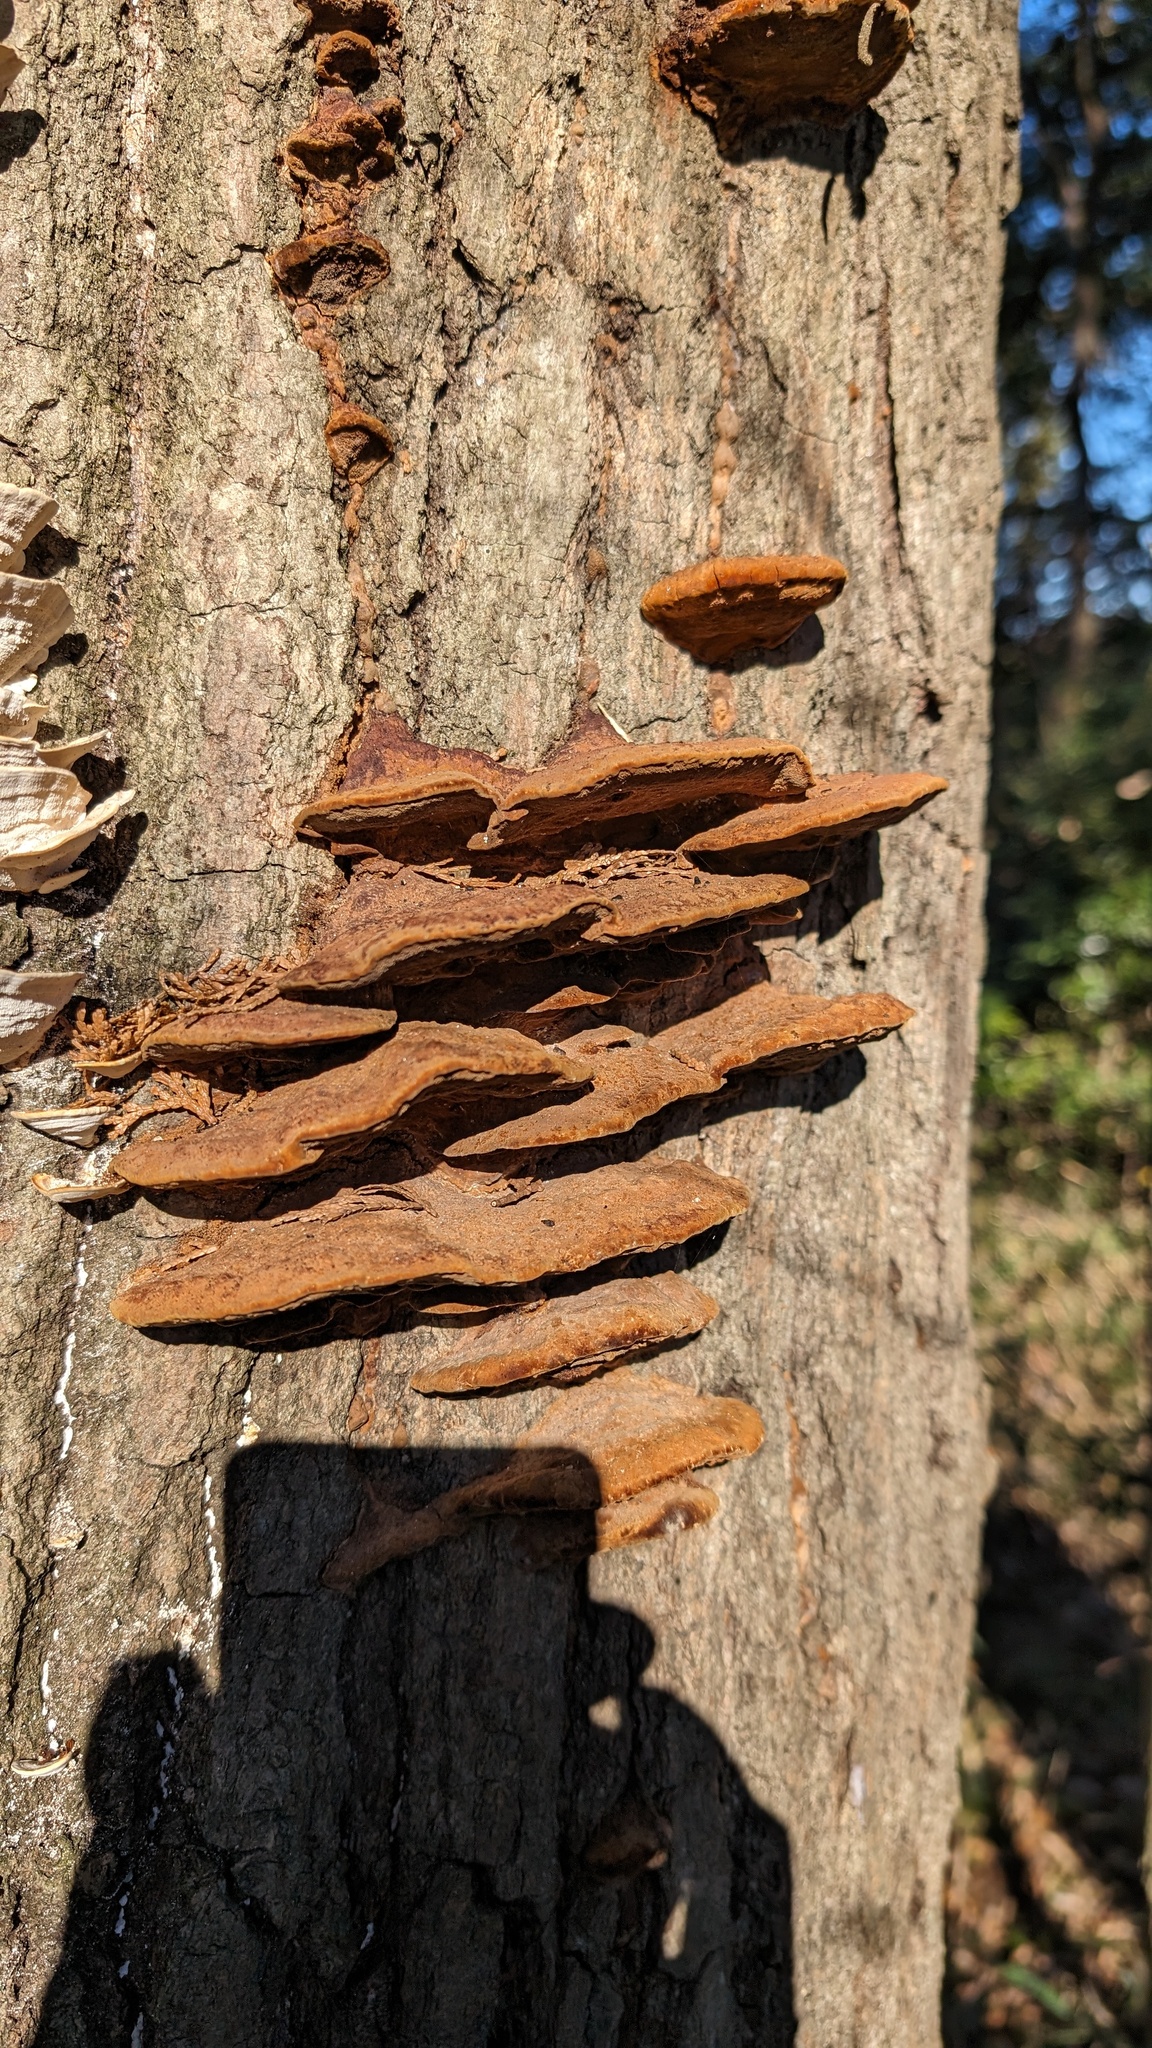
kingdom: Fungi
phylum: Basidiomycota
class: Agaricomycetes
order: Hymenochaetales
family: Hymenochaetaceae
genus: Phellinus
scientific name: Phellinus gilvus
